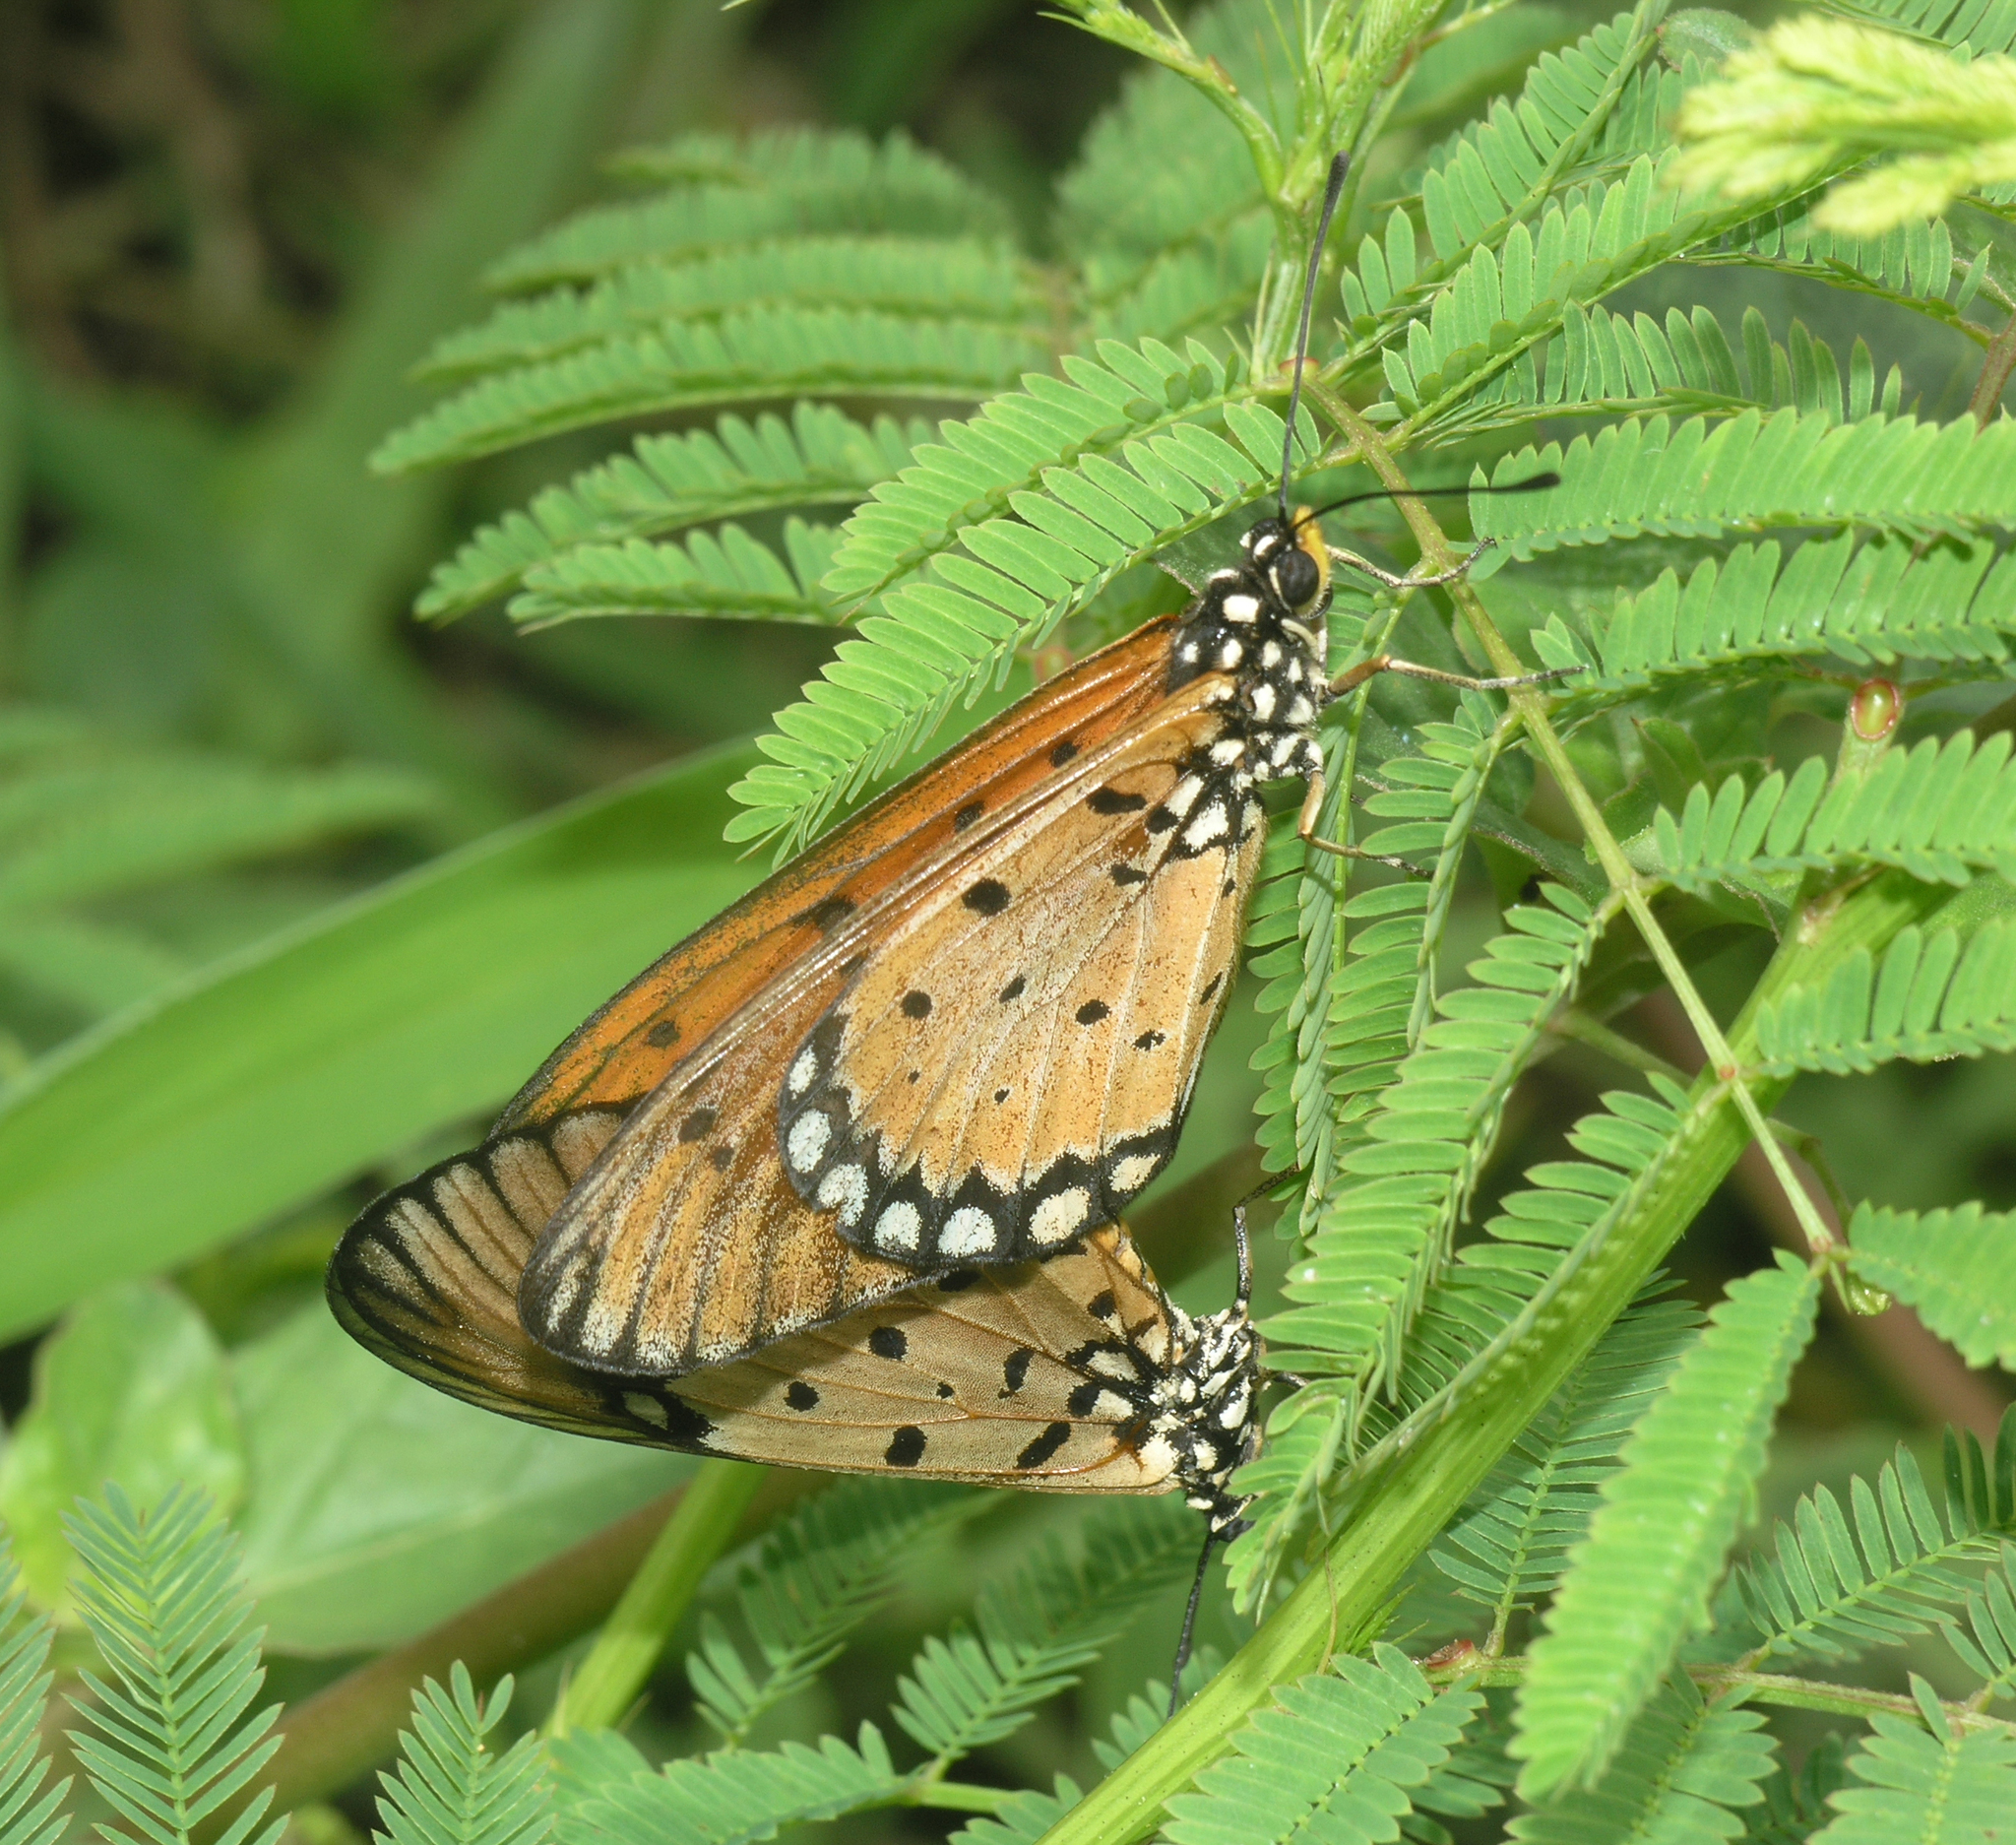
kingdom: Animalia
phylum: Arthropoda
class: Insecta
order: Lepidoptera
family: Nymphalidae
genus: Acraea
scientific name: Acraea terpsicore
